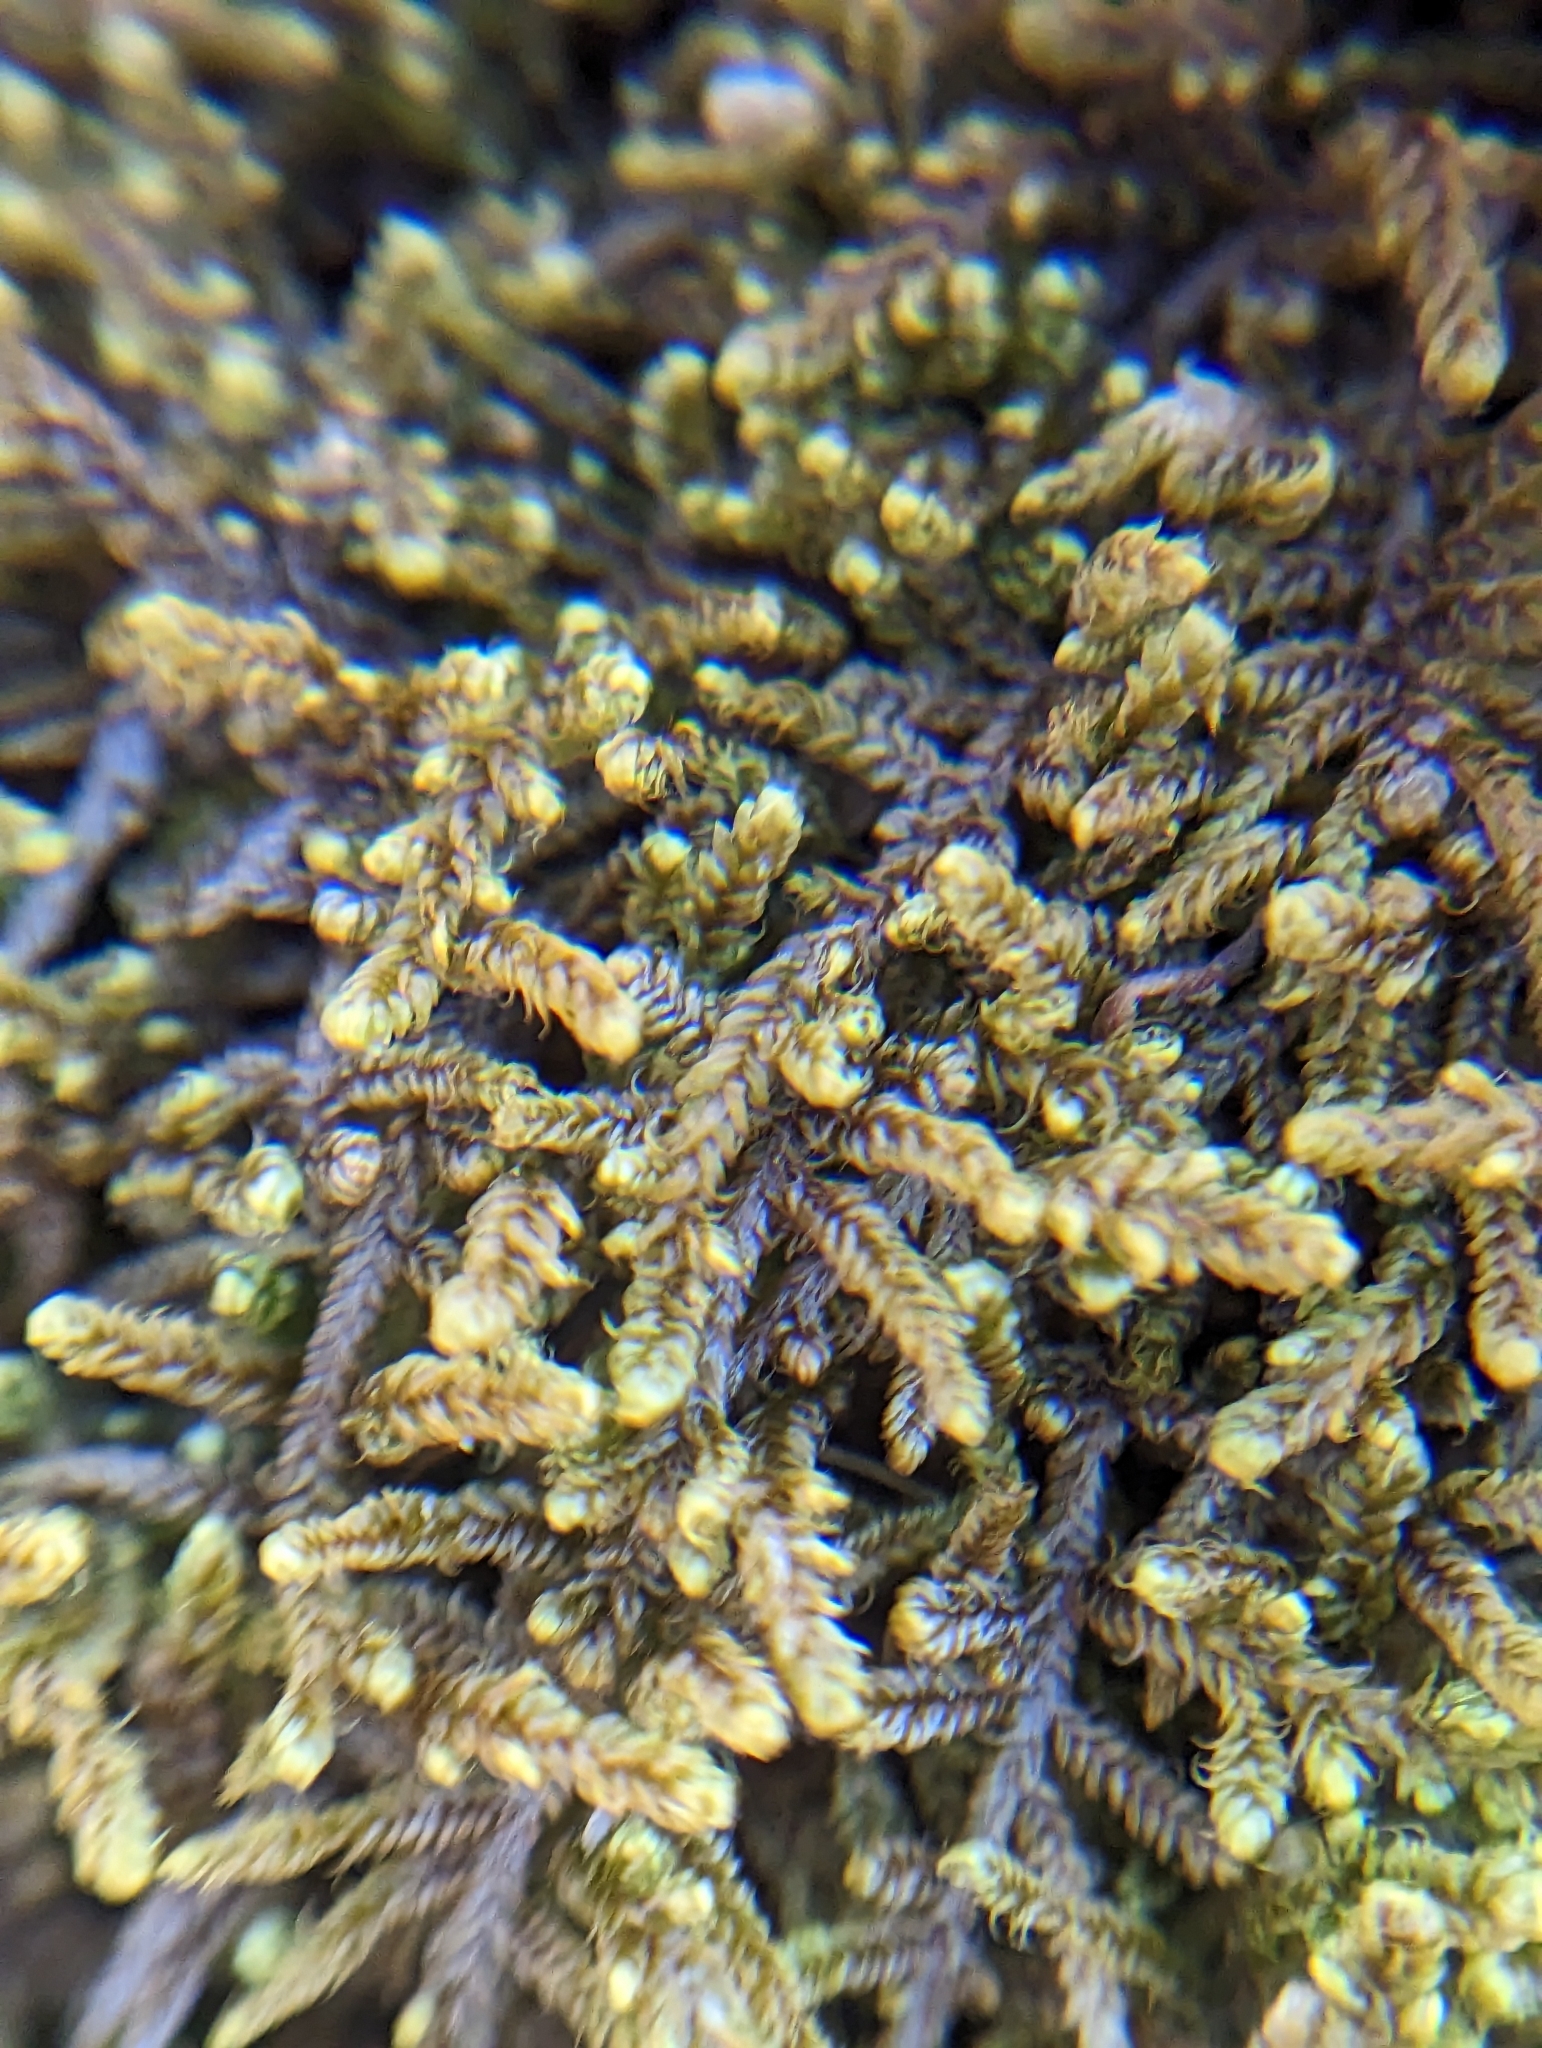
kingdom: Plantae
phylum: Bryophyta
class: Bryopsida
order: Hypnales
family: Callicladiaceae
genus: Callicladium
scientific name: Callicladium imponens
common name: Brocade moss
